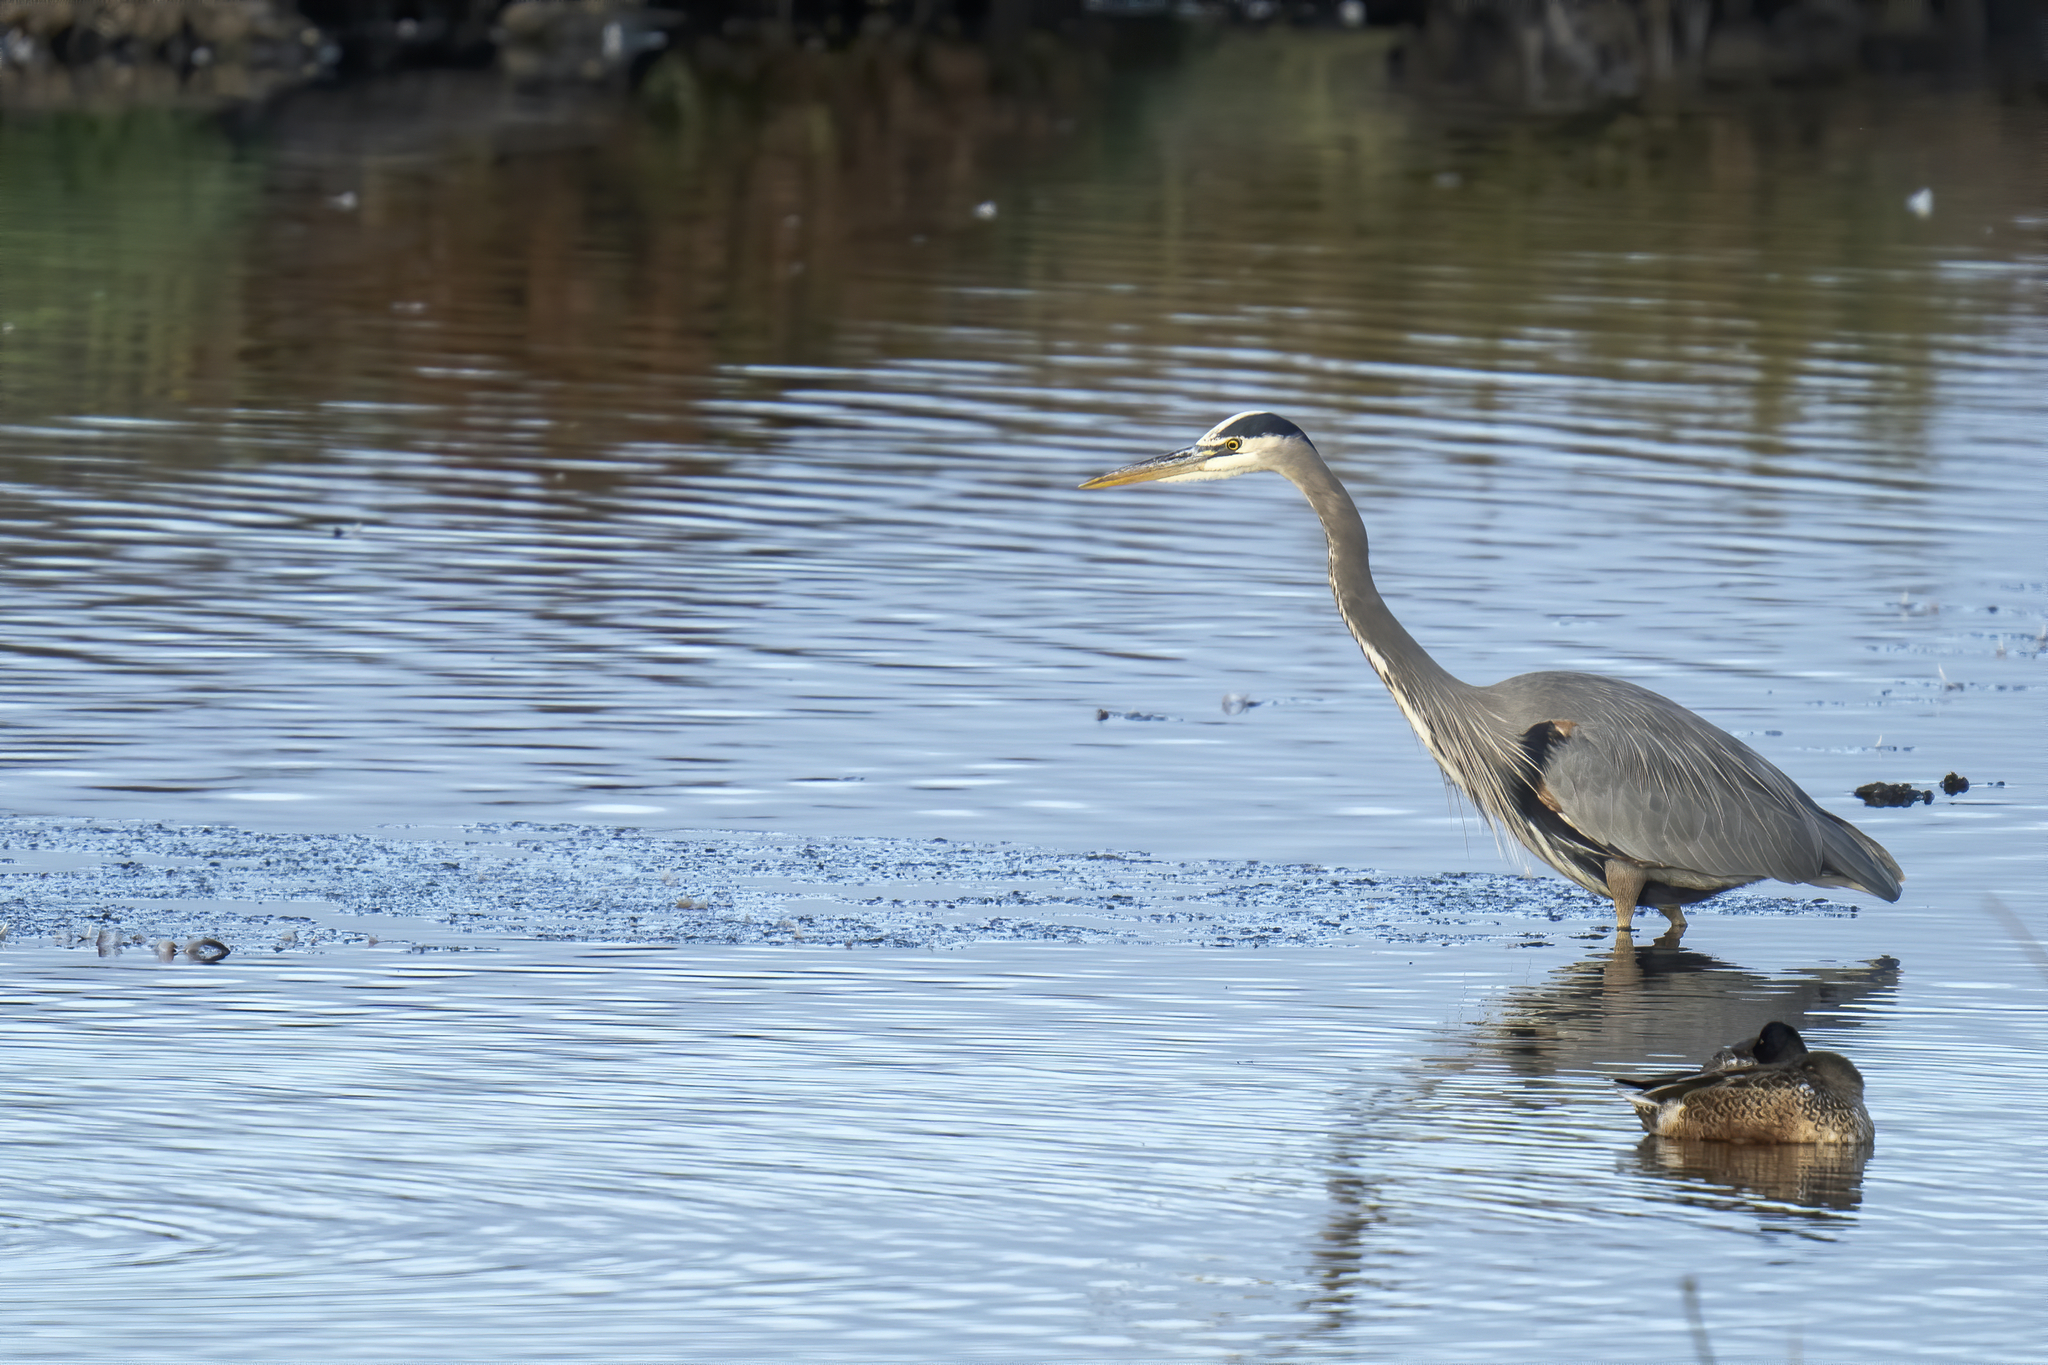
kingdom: Animalia
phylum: Chordata
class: Aves
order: Pelecaniformes
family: Ardeidae
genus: Ardea
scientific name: Ardea herodias
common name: Great blue heron
